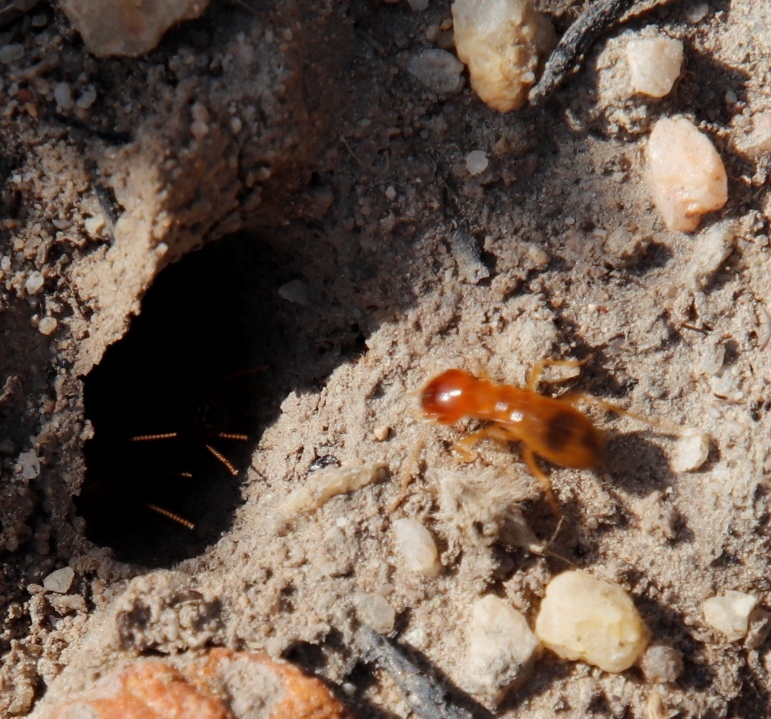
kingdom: Animalia
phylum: Arthropoda
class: Insecta
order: Blattodea
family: Hodotermitidae
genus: Microhodotermes
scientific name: Microhodotermes viator
